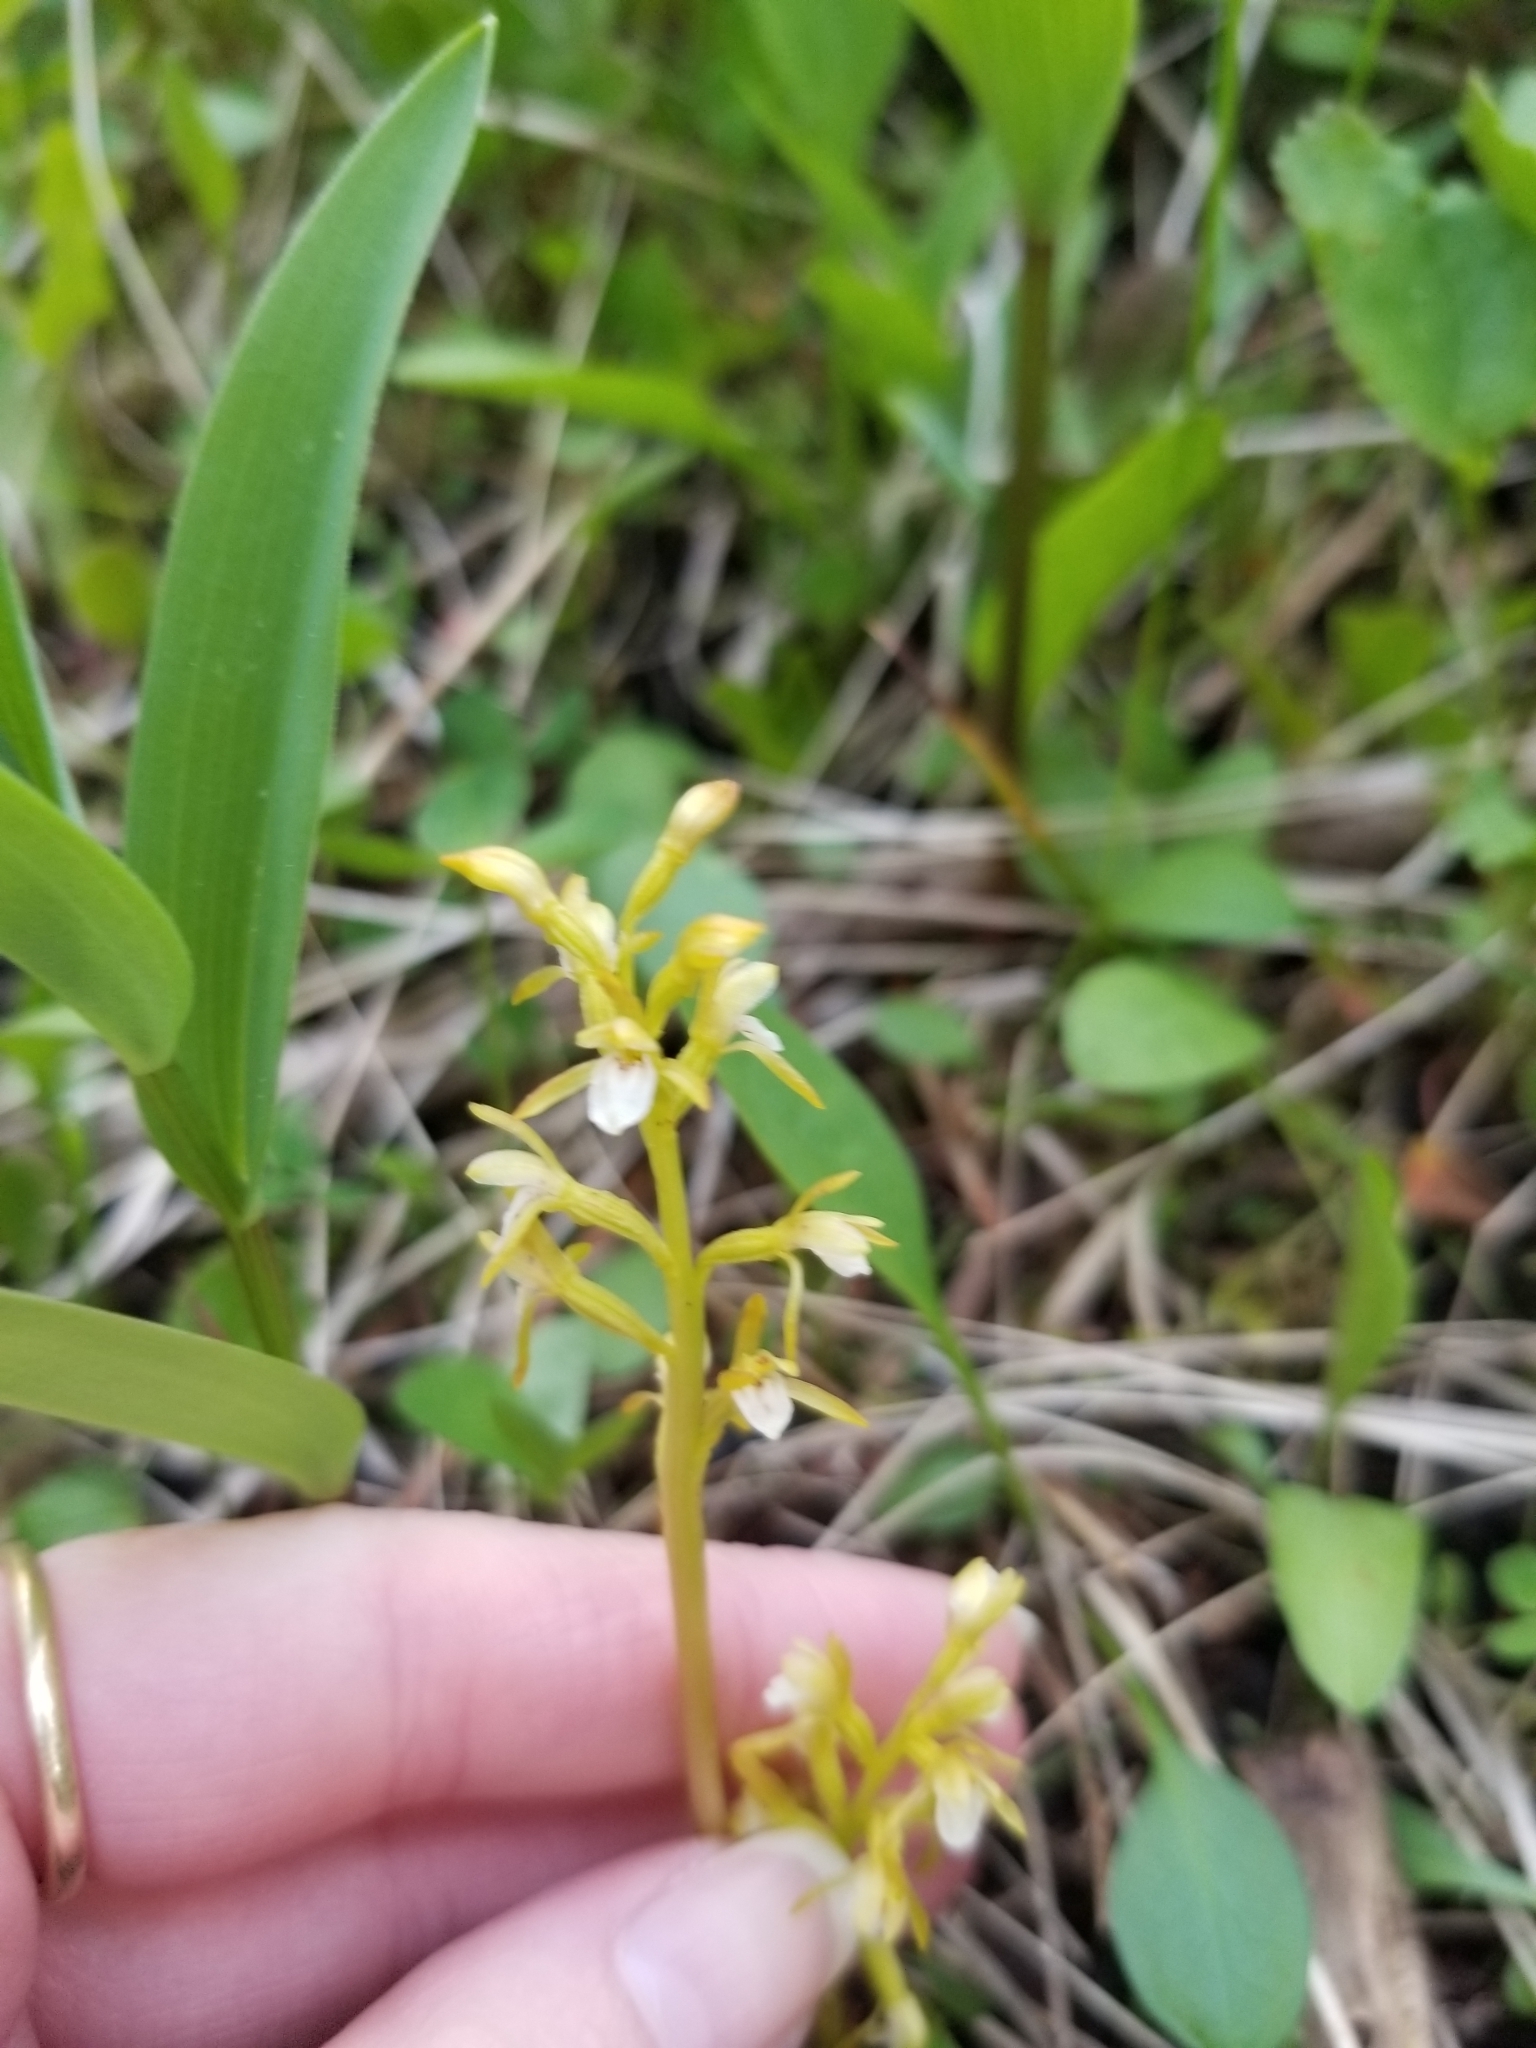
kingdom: Plantae
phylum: Tracheophyta
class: Liliopsida
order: Asparagales
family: Orchidaceae
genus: Corallorhiza
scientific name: Corallorhiza trifida
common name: Yellow coralroot
